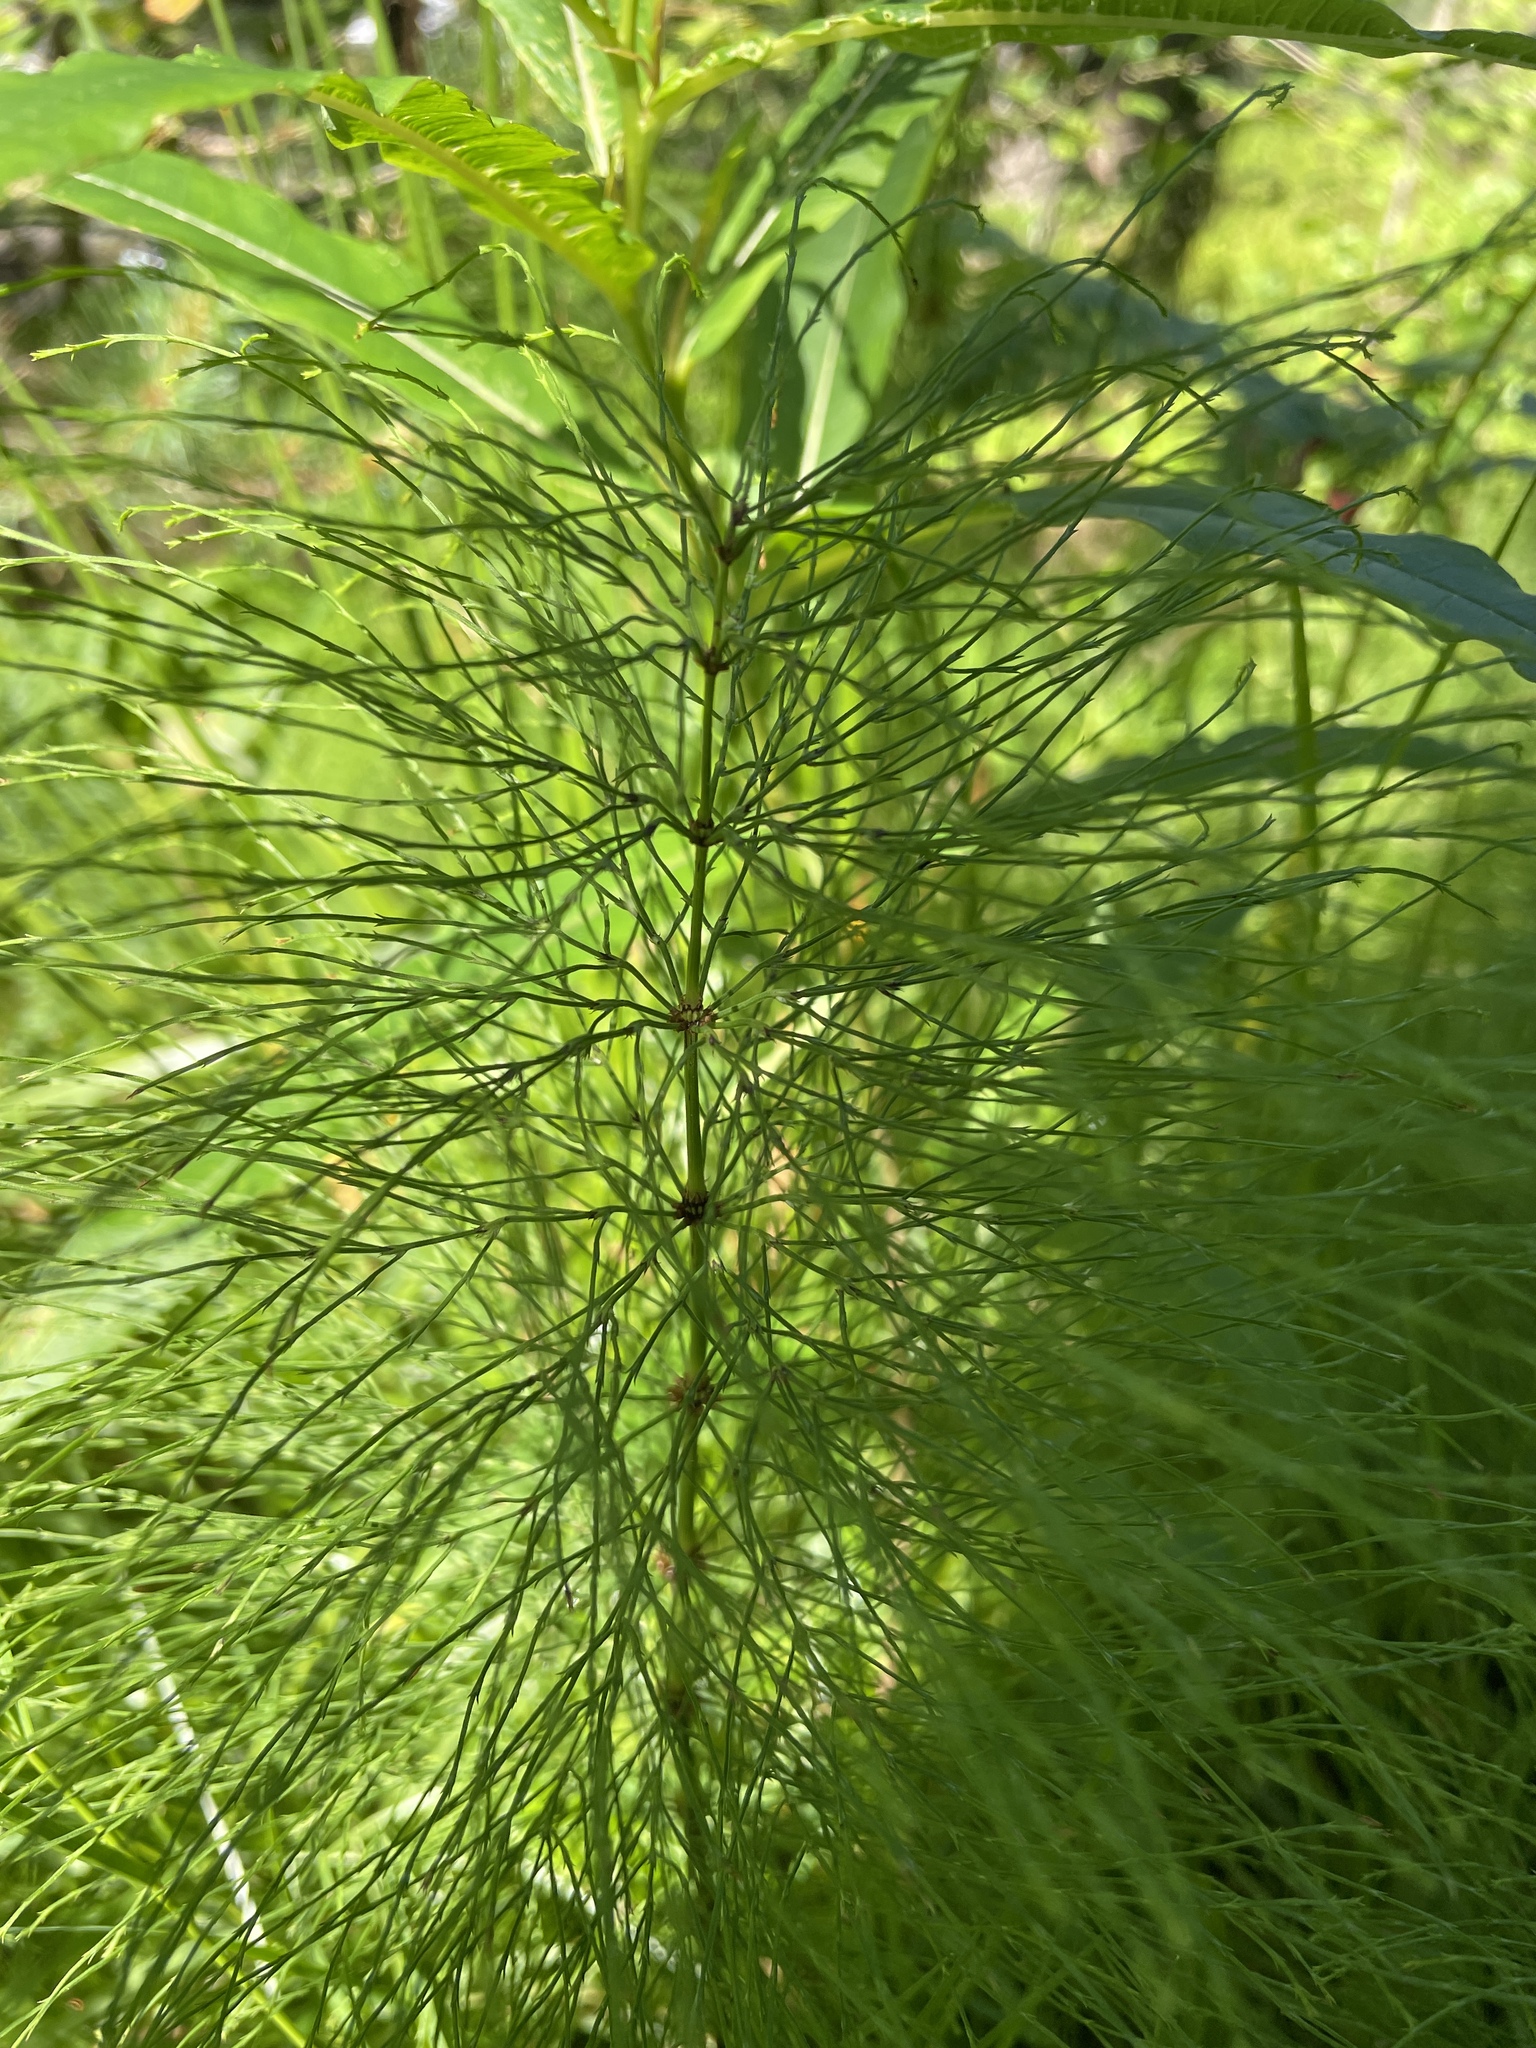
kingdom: Plantae
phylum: Tracheophyta
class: Polypodiopsida
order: Equisetales
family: Equisetaceae
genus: Equisetum
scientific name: Equisetum sylvaticum
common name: Wood horsetail
